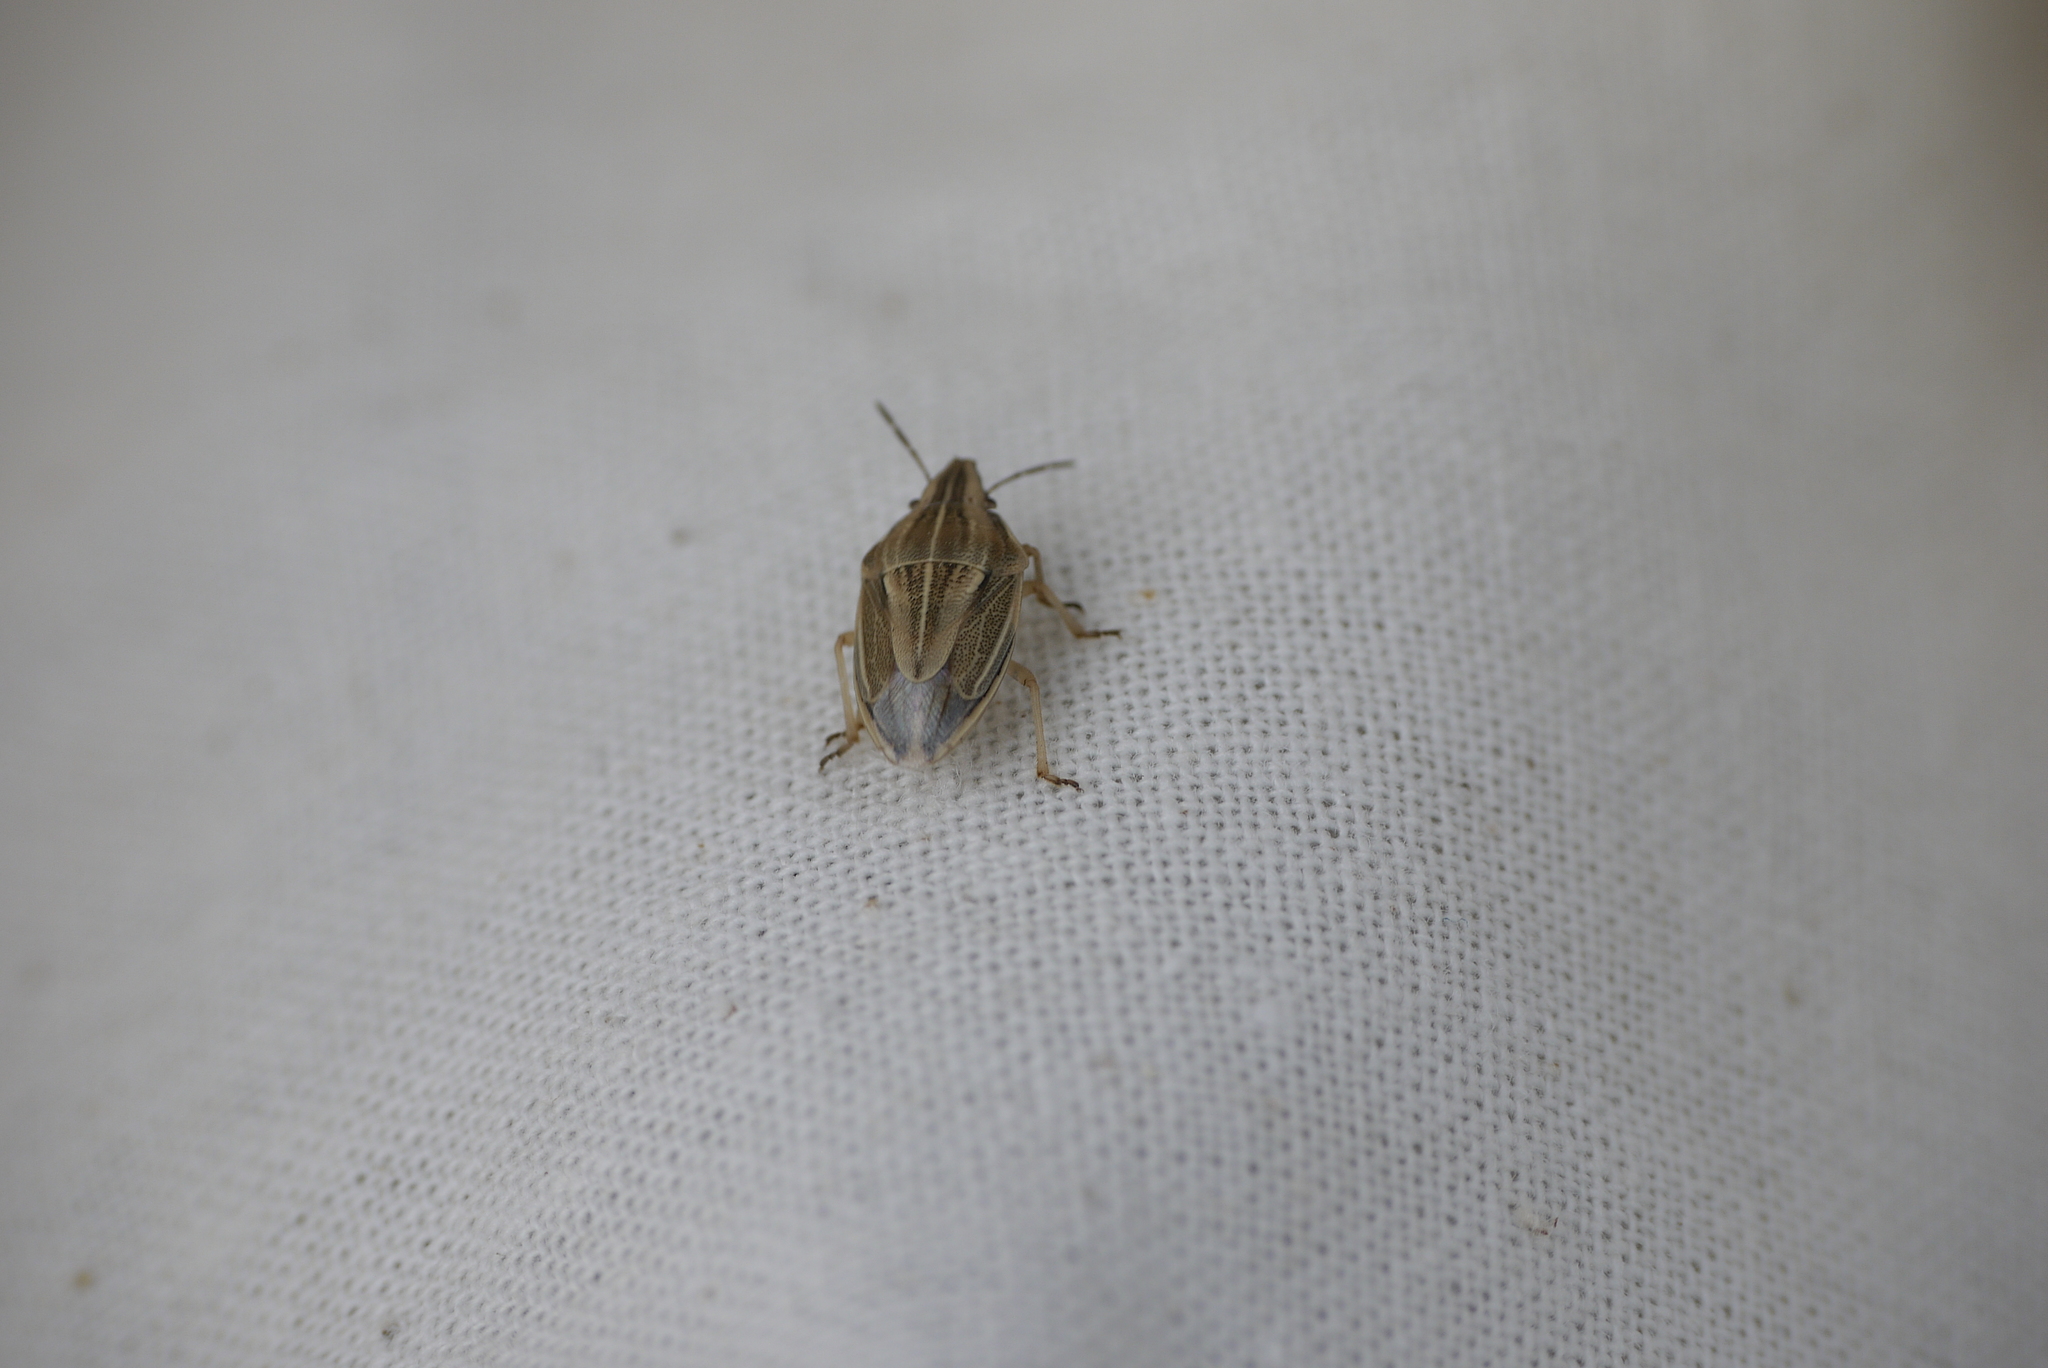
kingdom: Animalia
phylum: Arthropoda
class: Insecta
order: Hemiptera
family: Pentatomidae
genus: Aelia
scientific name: Aelia acuminata
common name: Bishop's mitre
